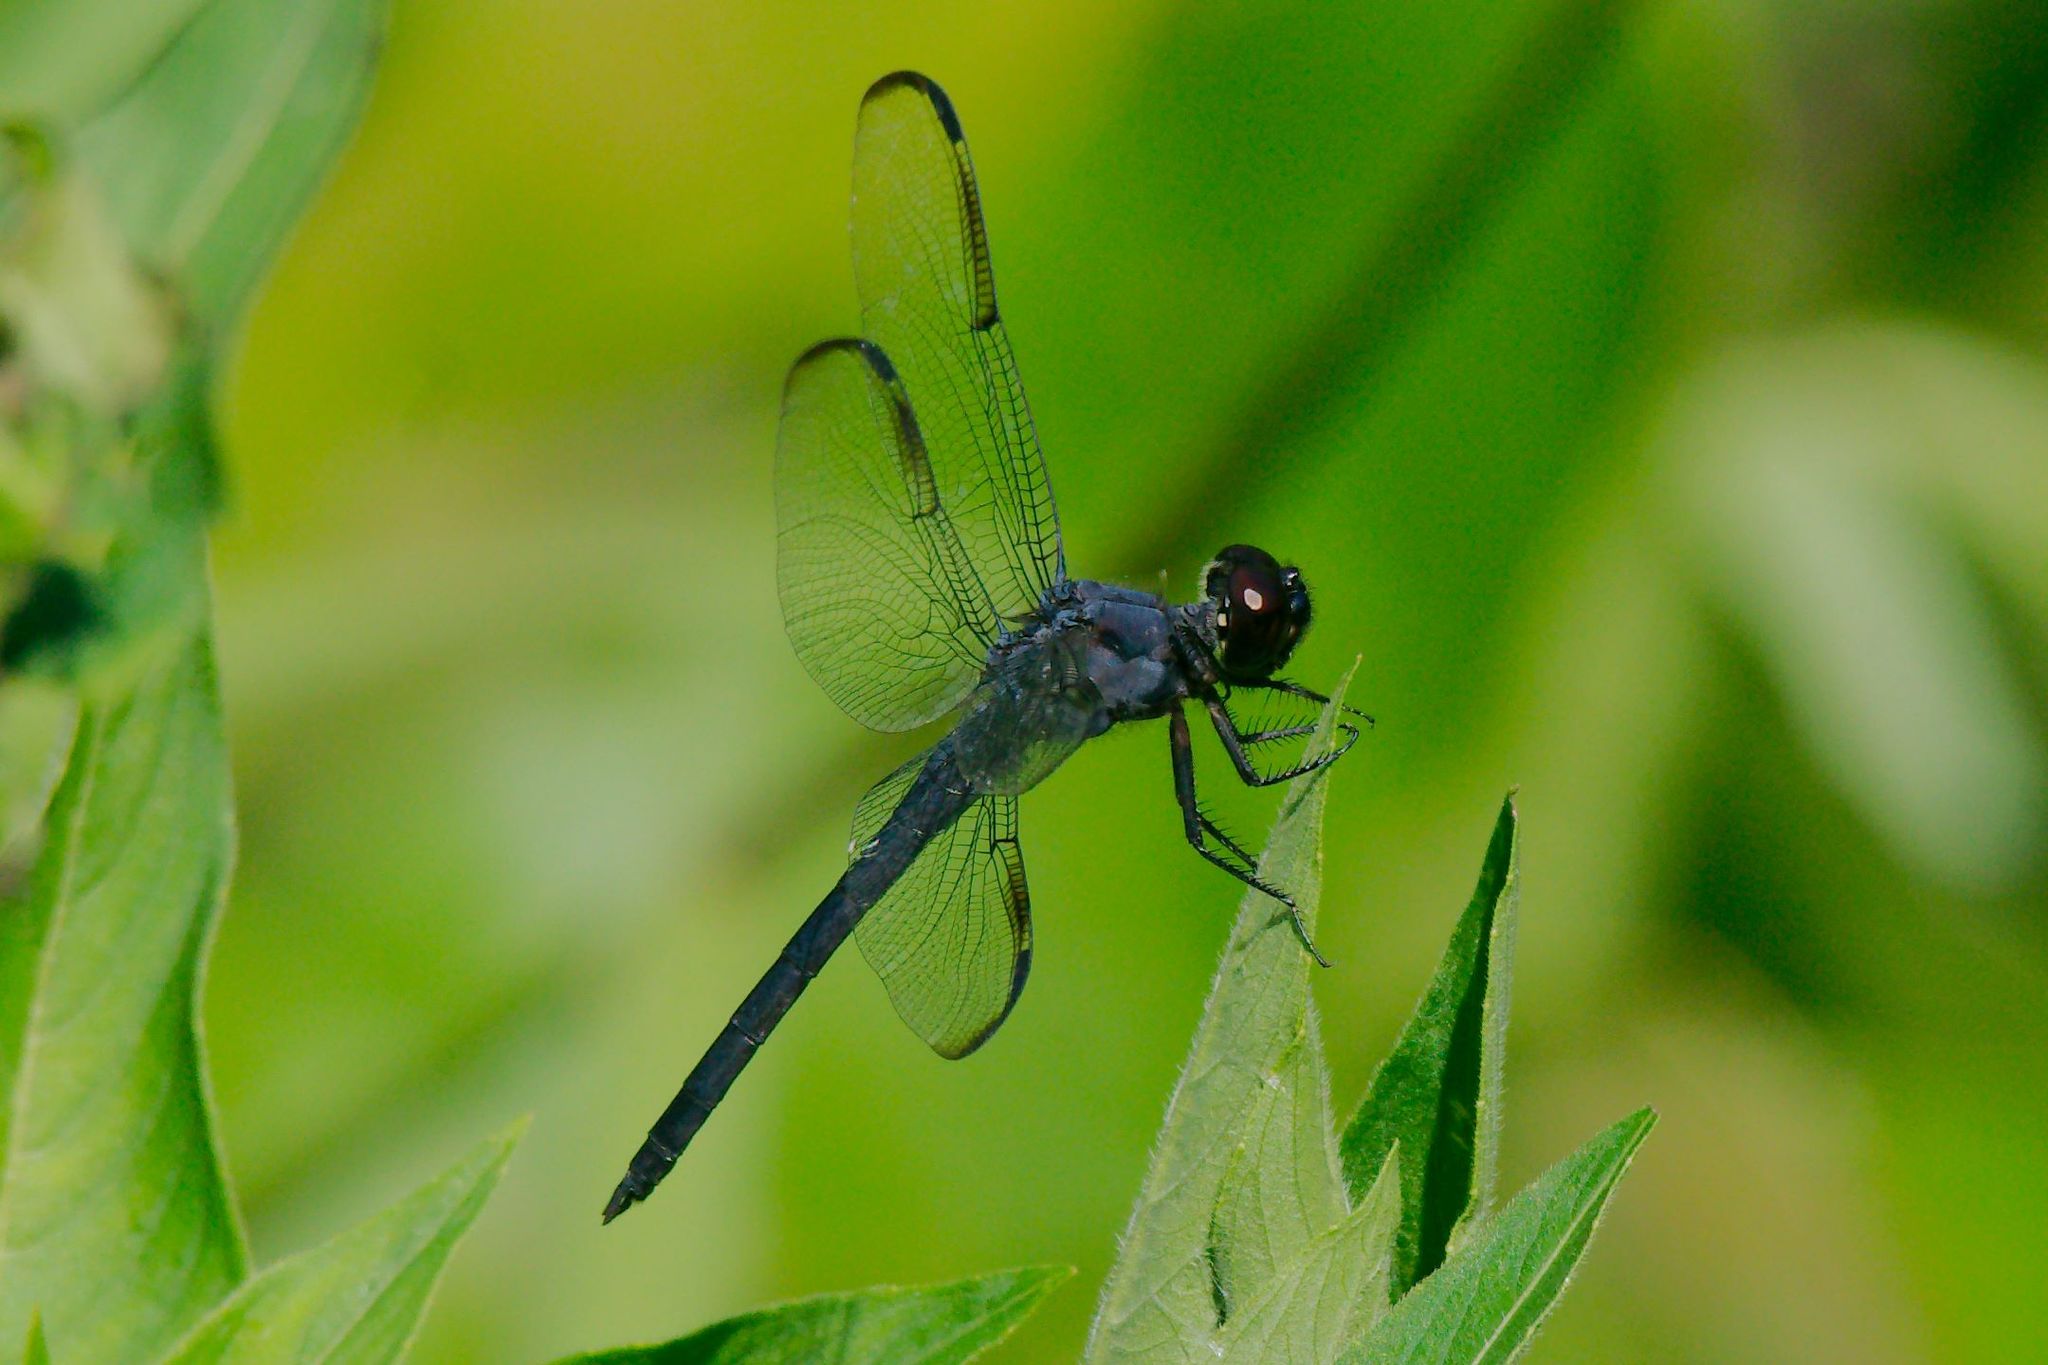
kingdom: Animalia
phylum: Arthropoda
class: Insecta
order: Odonata
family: Libellulidae
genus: Libellula
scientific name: Libellula incesta
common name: Slaty skimmer
